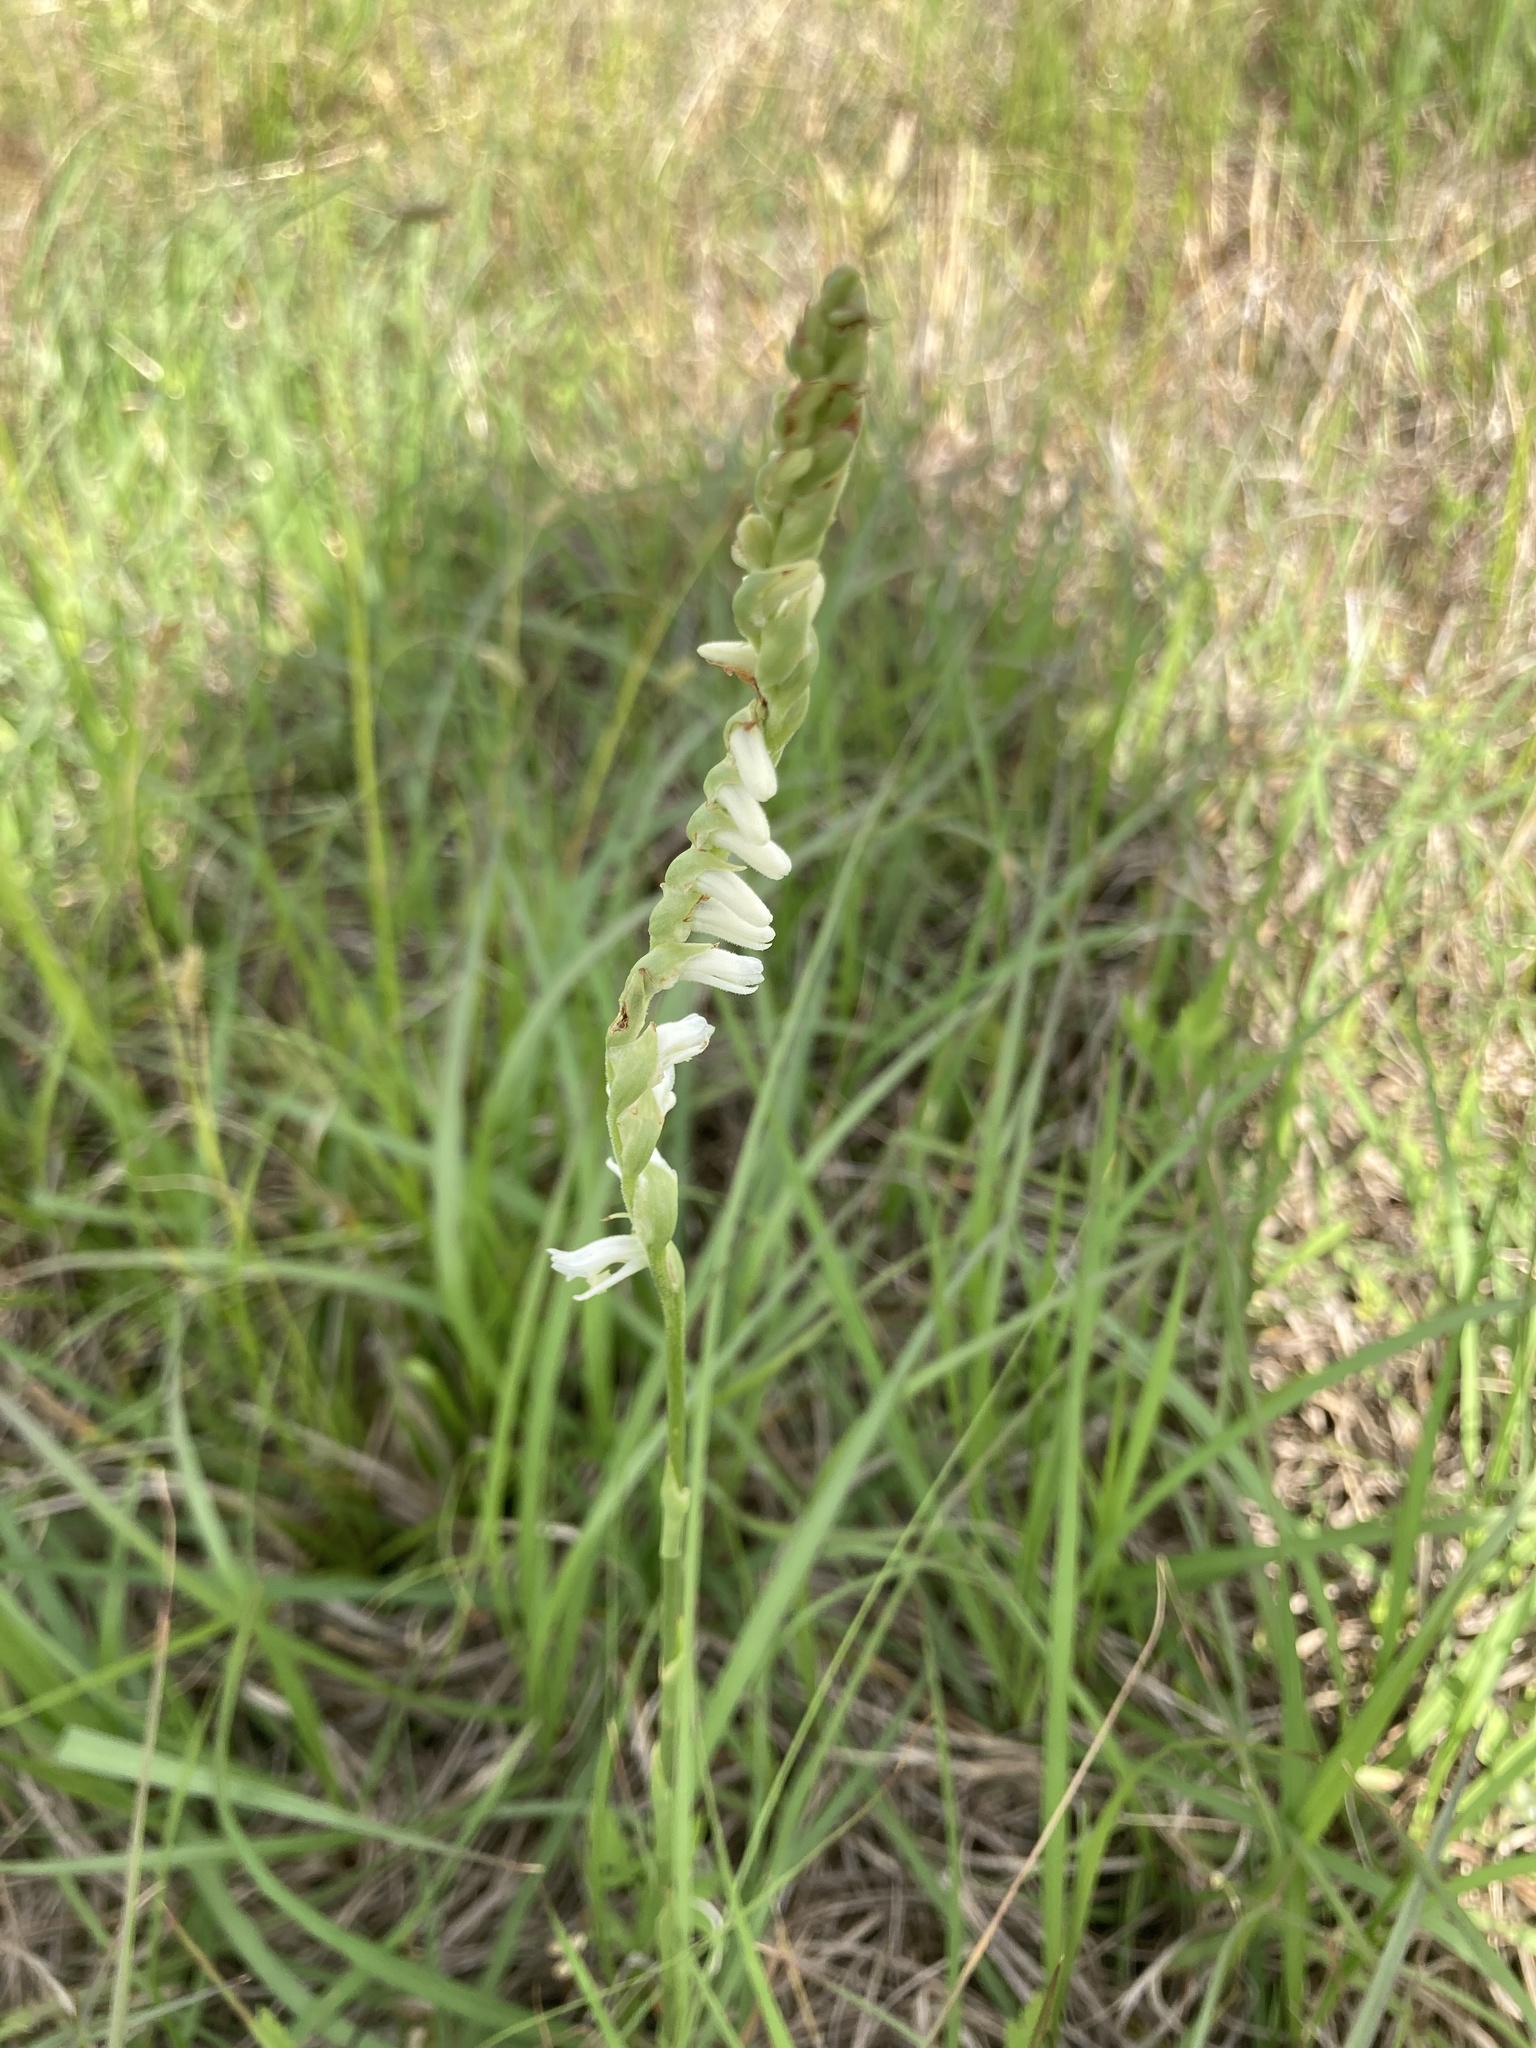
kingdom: Plantae
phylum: Tracheophyta
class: Liliopsida
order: Asparagales
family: Orchidaceae
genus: Spiranthes
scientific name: Spiranthes vernalis
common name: Spring ladies'-tresses
